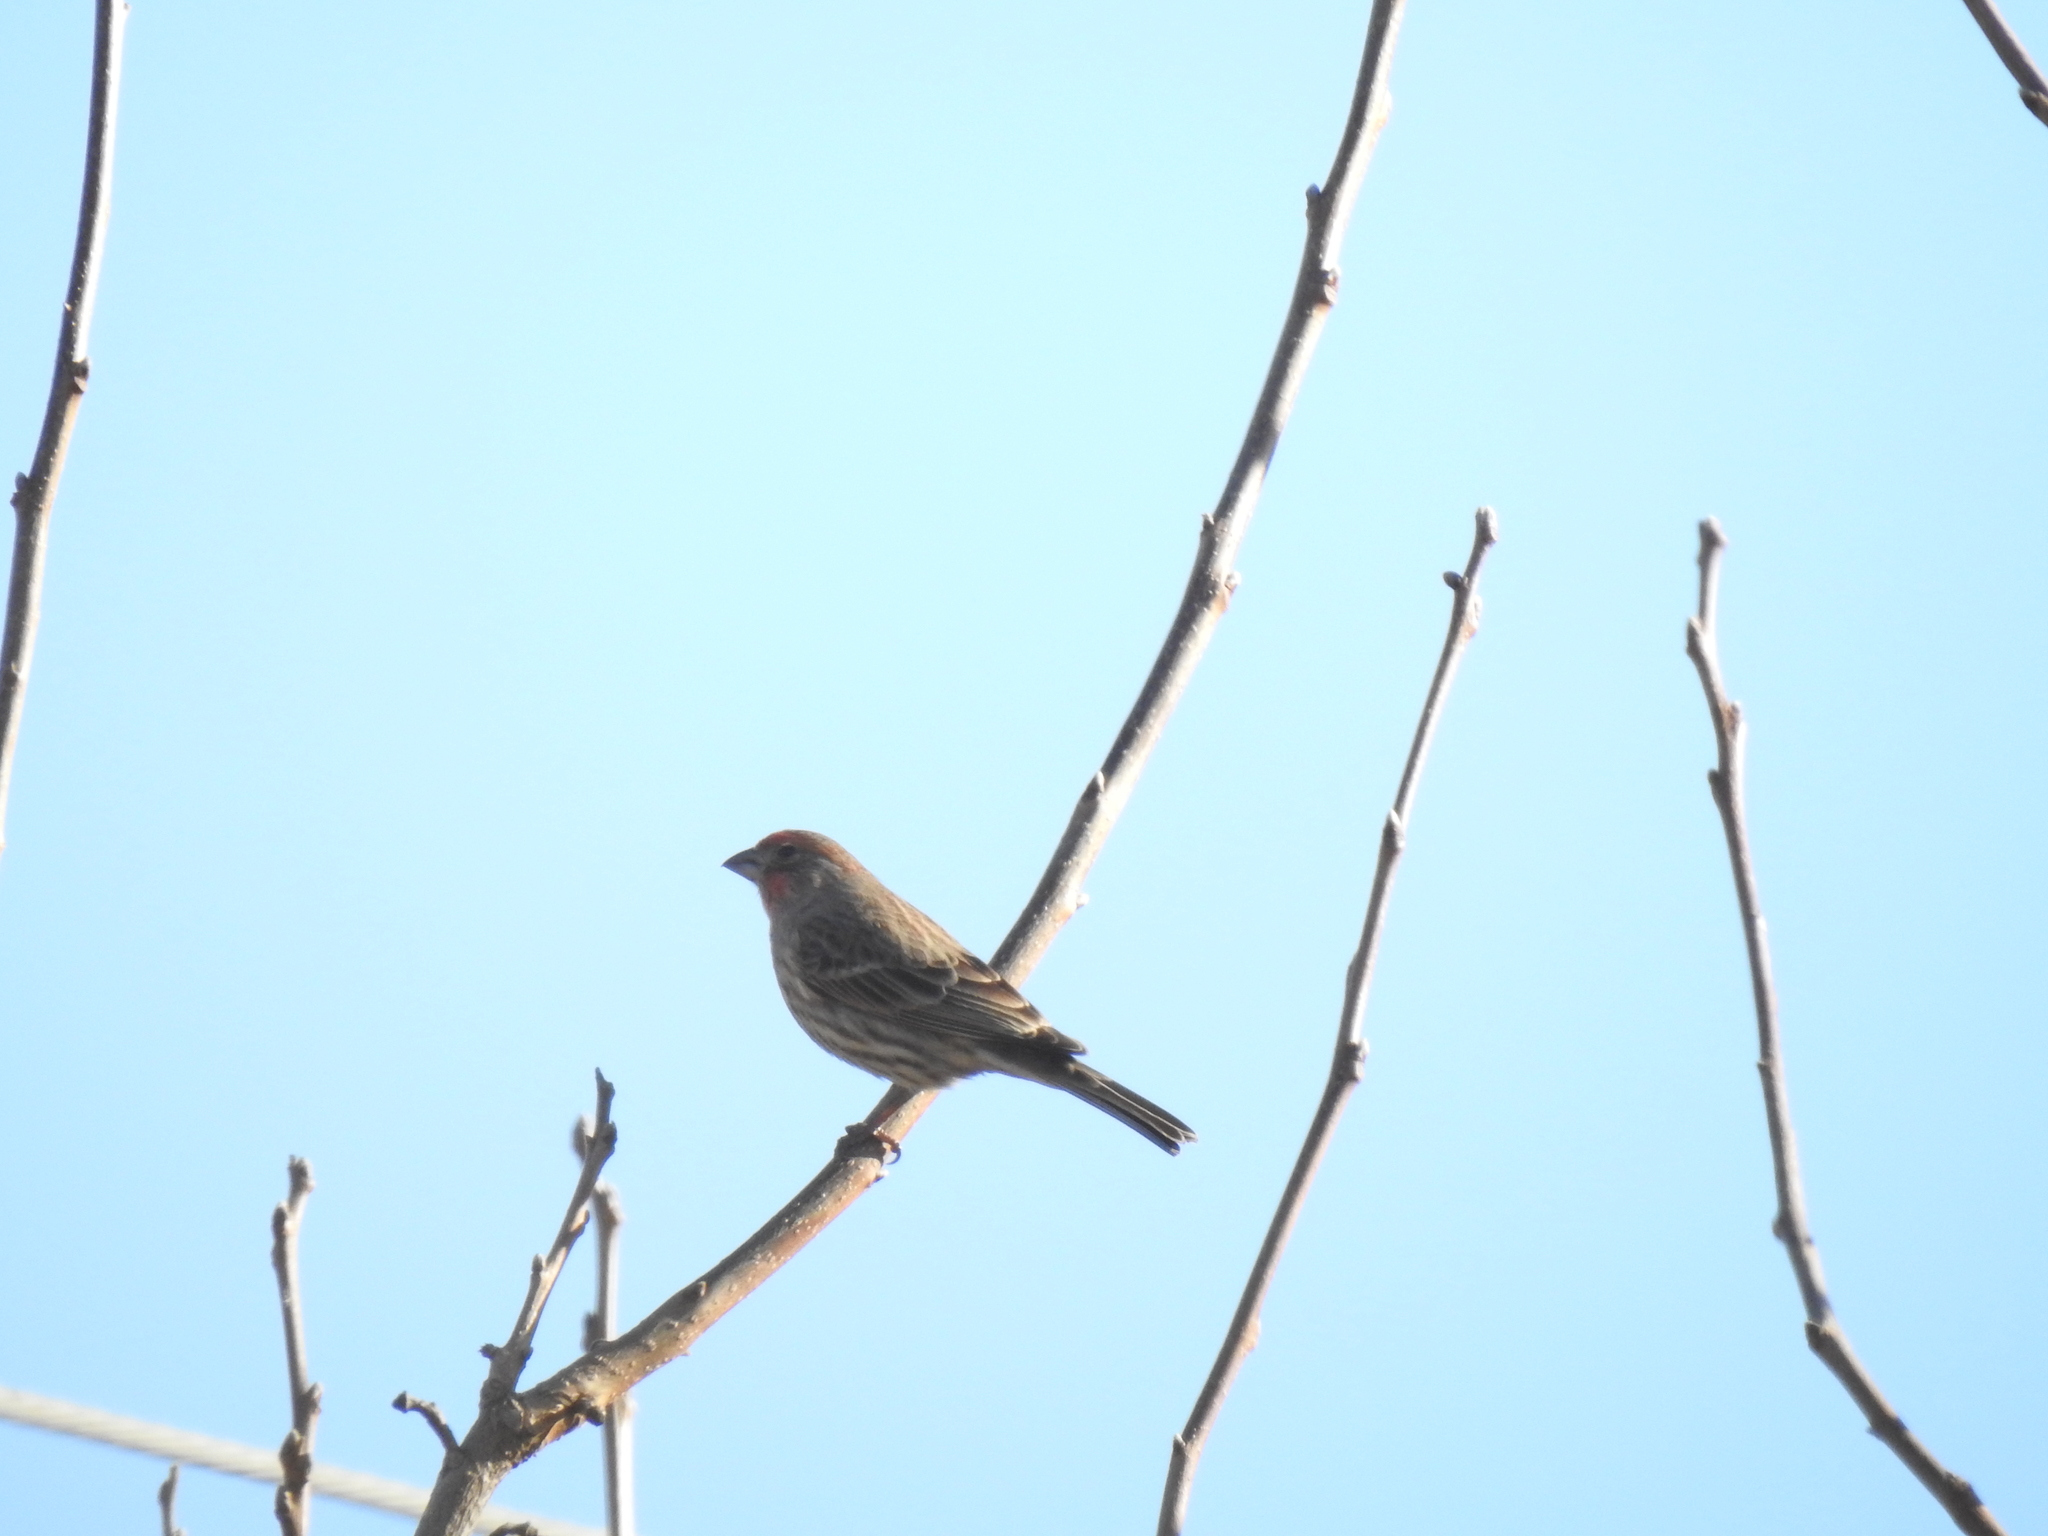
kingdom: Animalia
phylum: Chordata
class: Aves
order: Passeriformes
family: Fringillidae
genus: Haemorhous
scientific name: Haemorhous mexicanus
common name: House finch
